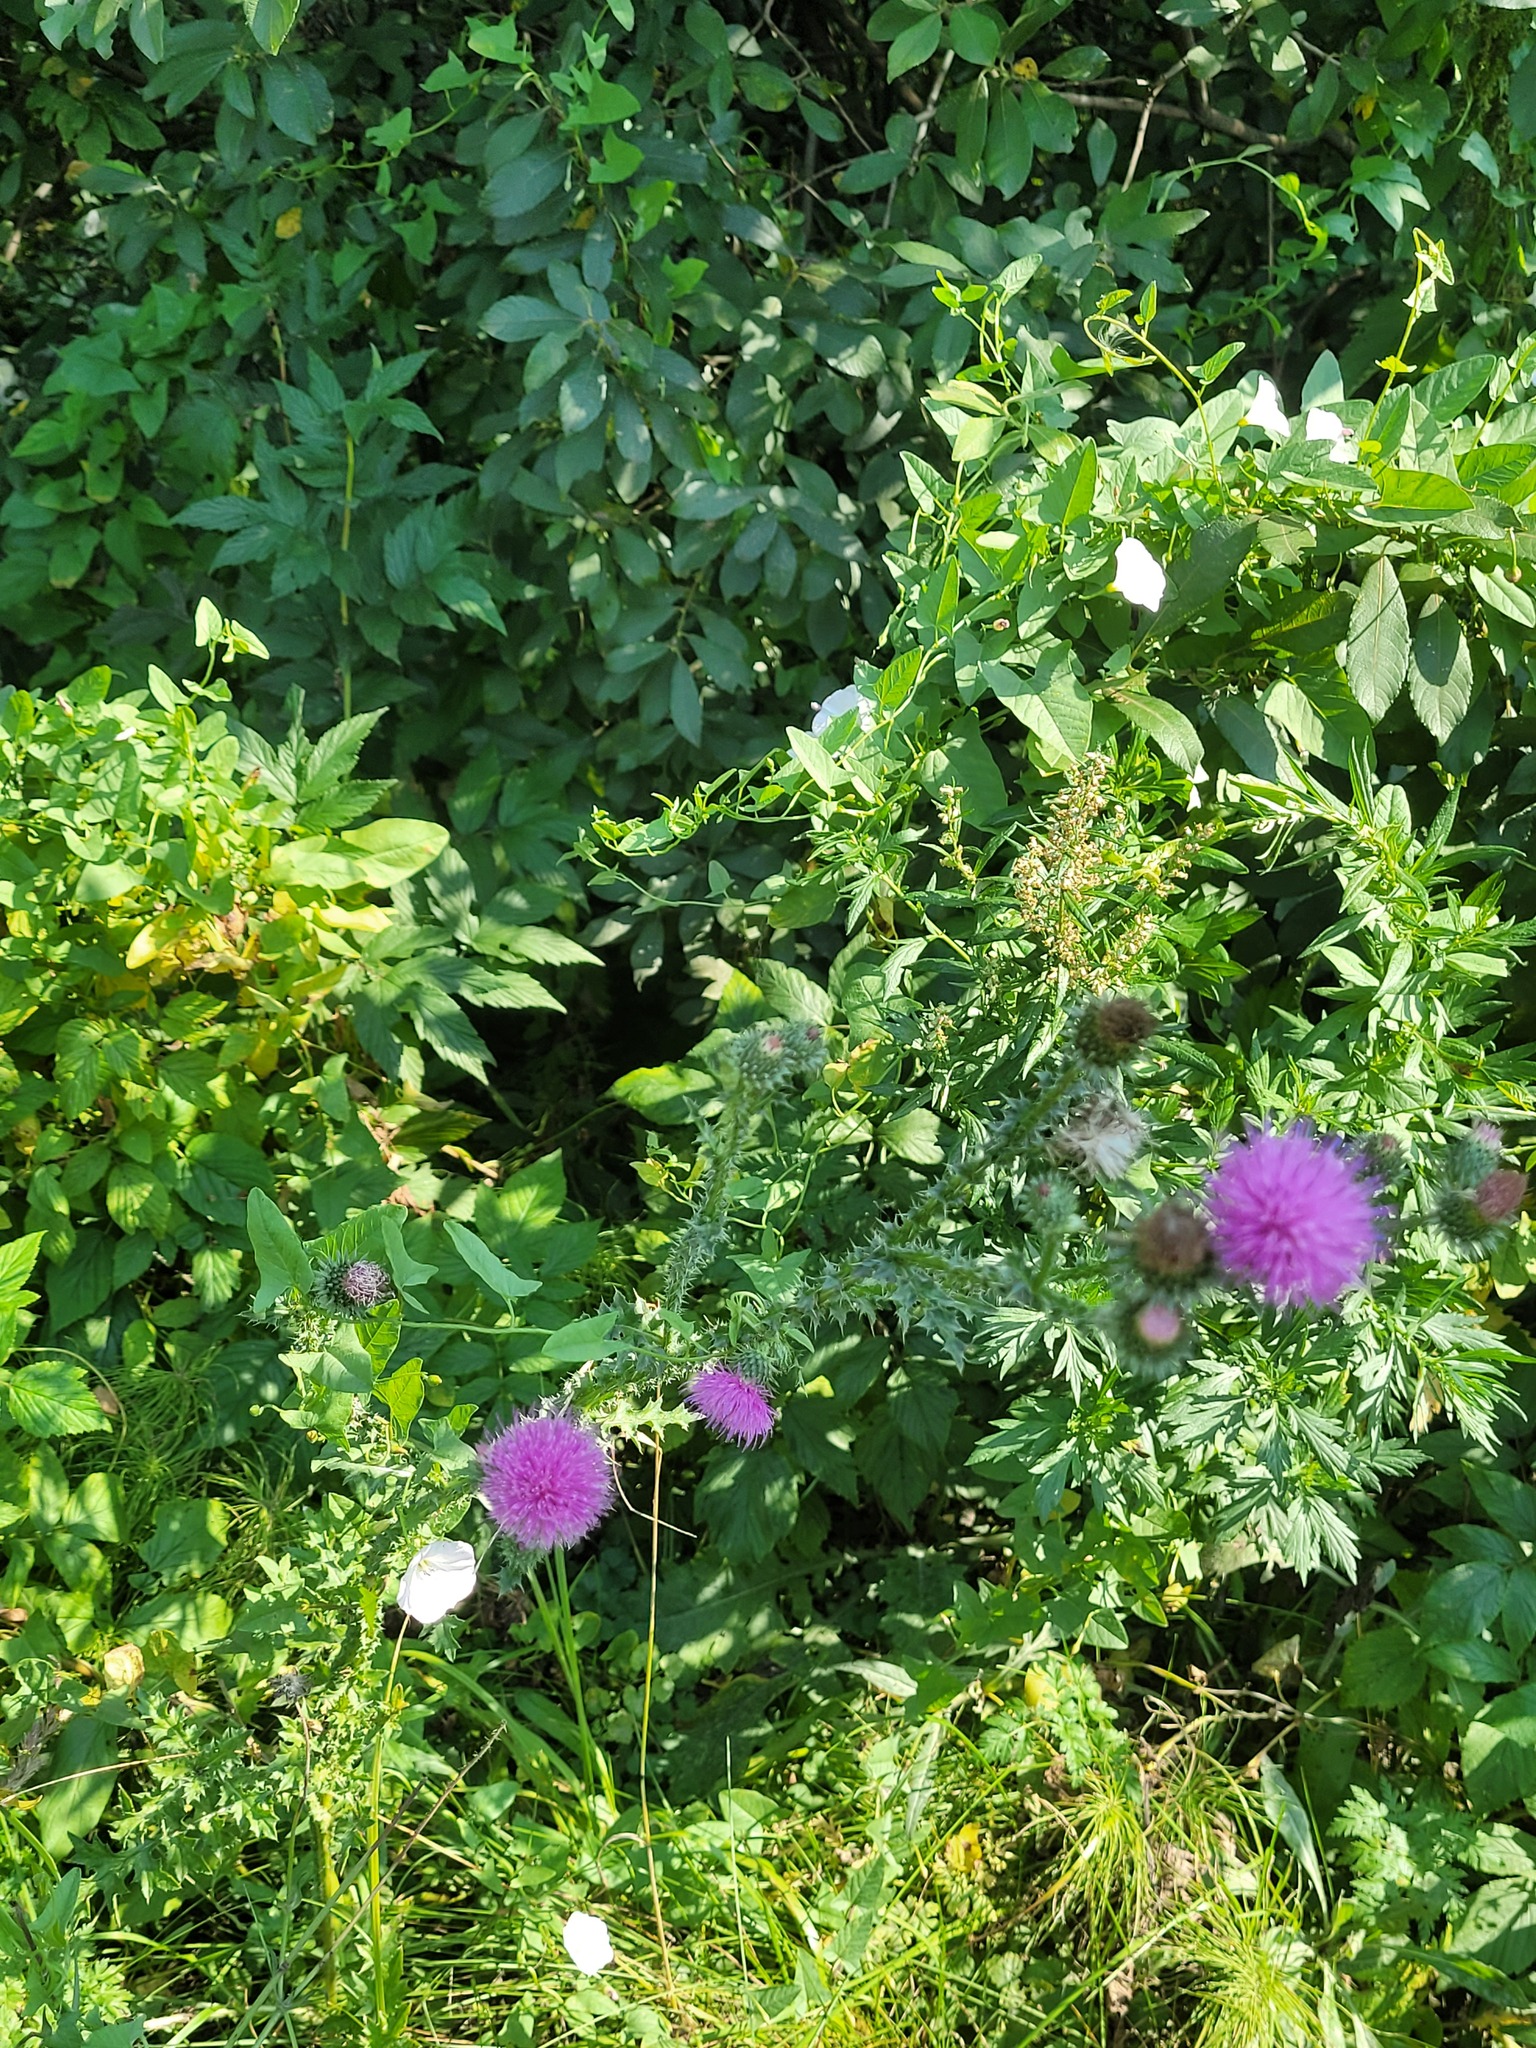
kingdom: Plantae
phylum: Tracheophyta
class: Magnoliopsida
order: Asterales
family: Asteraceae
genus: Carduus
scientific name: Carduus acanthoides
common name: Plumeless thistle
